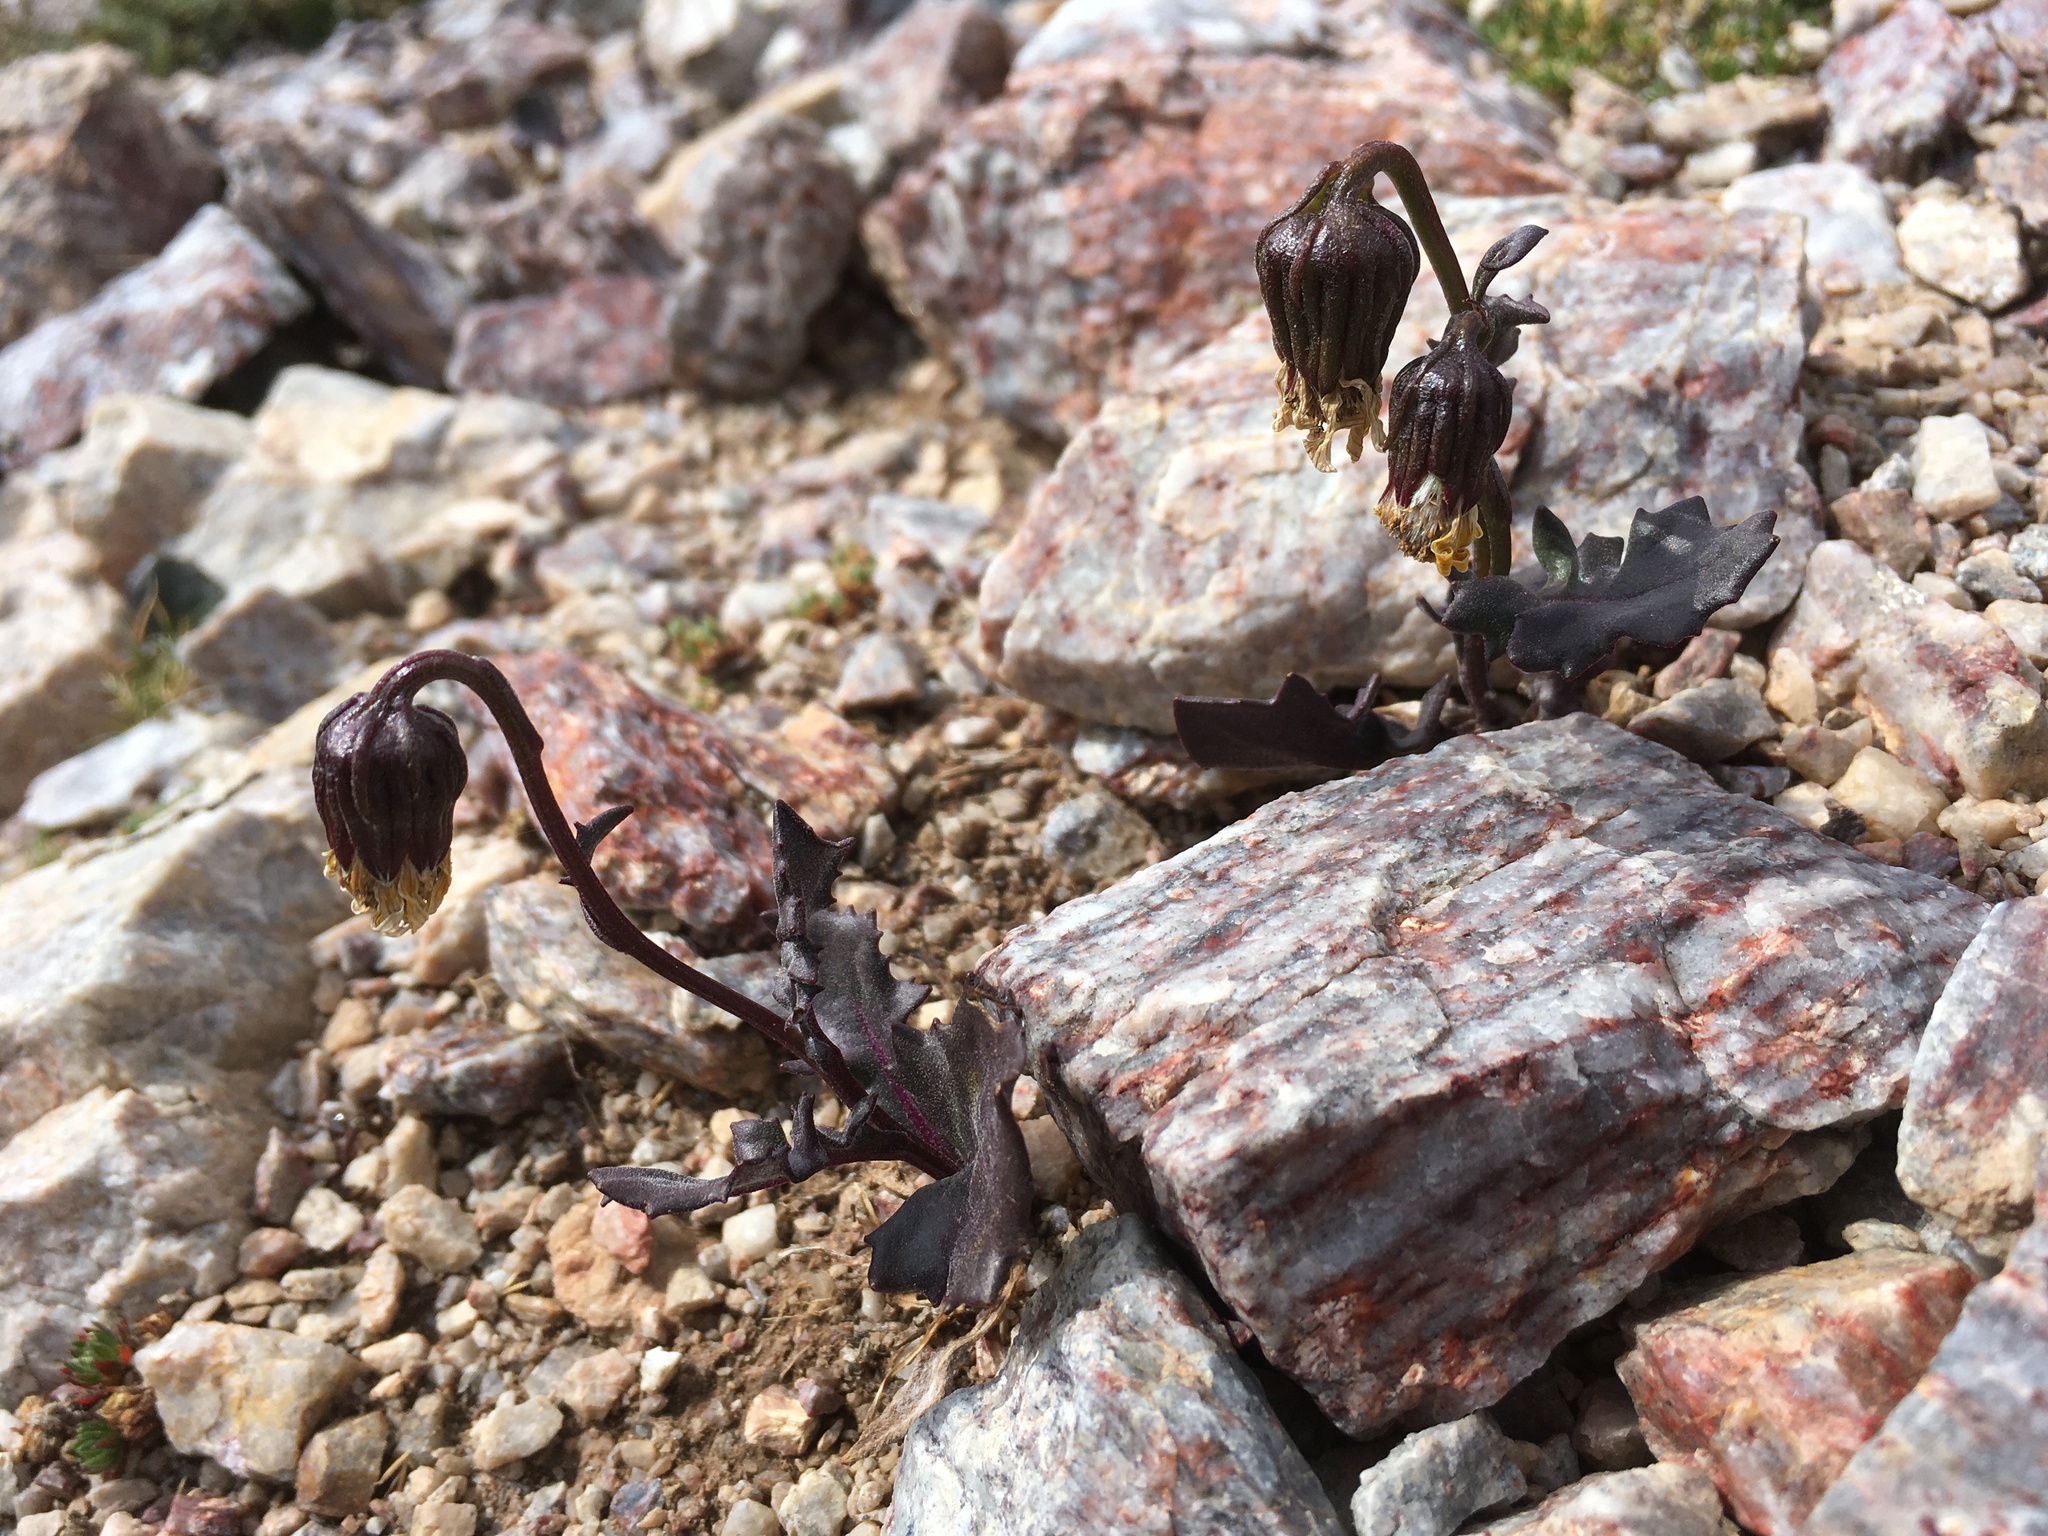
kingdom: Plantae
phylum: Tracheophyta
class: Magnoliopsida
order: Asterales
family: Asteraceae
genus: Senecio
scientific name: Senecio taraxacoides
